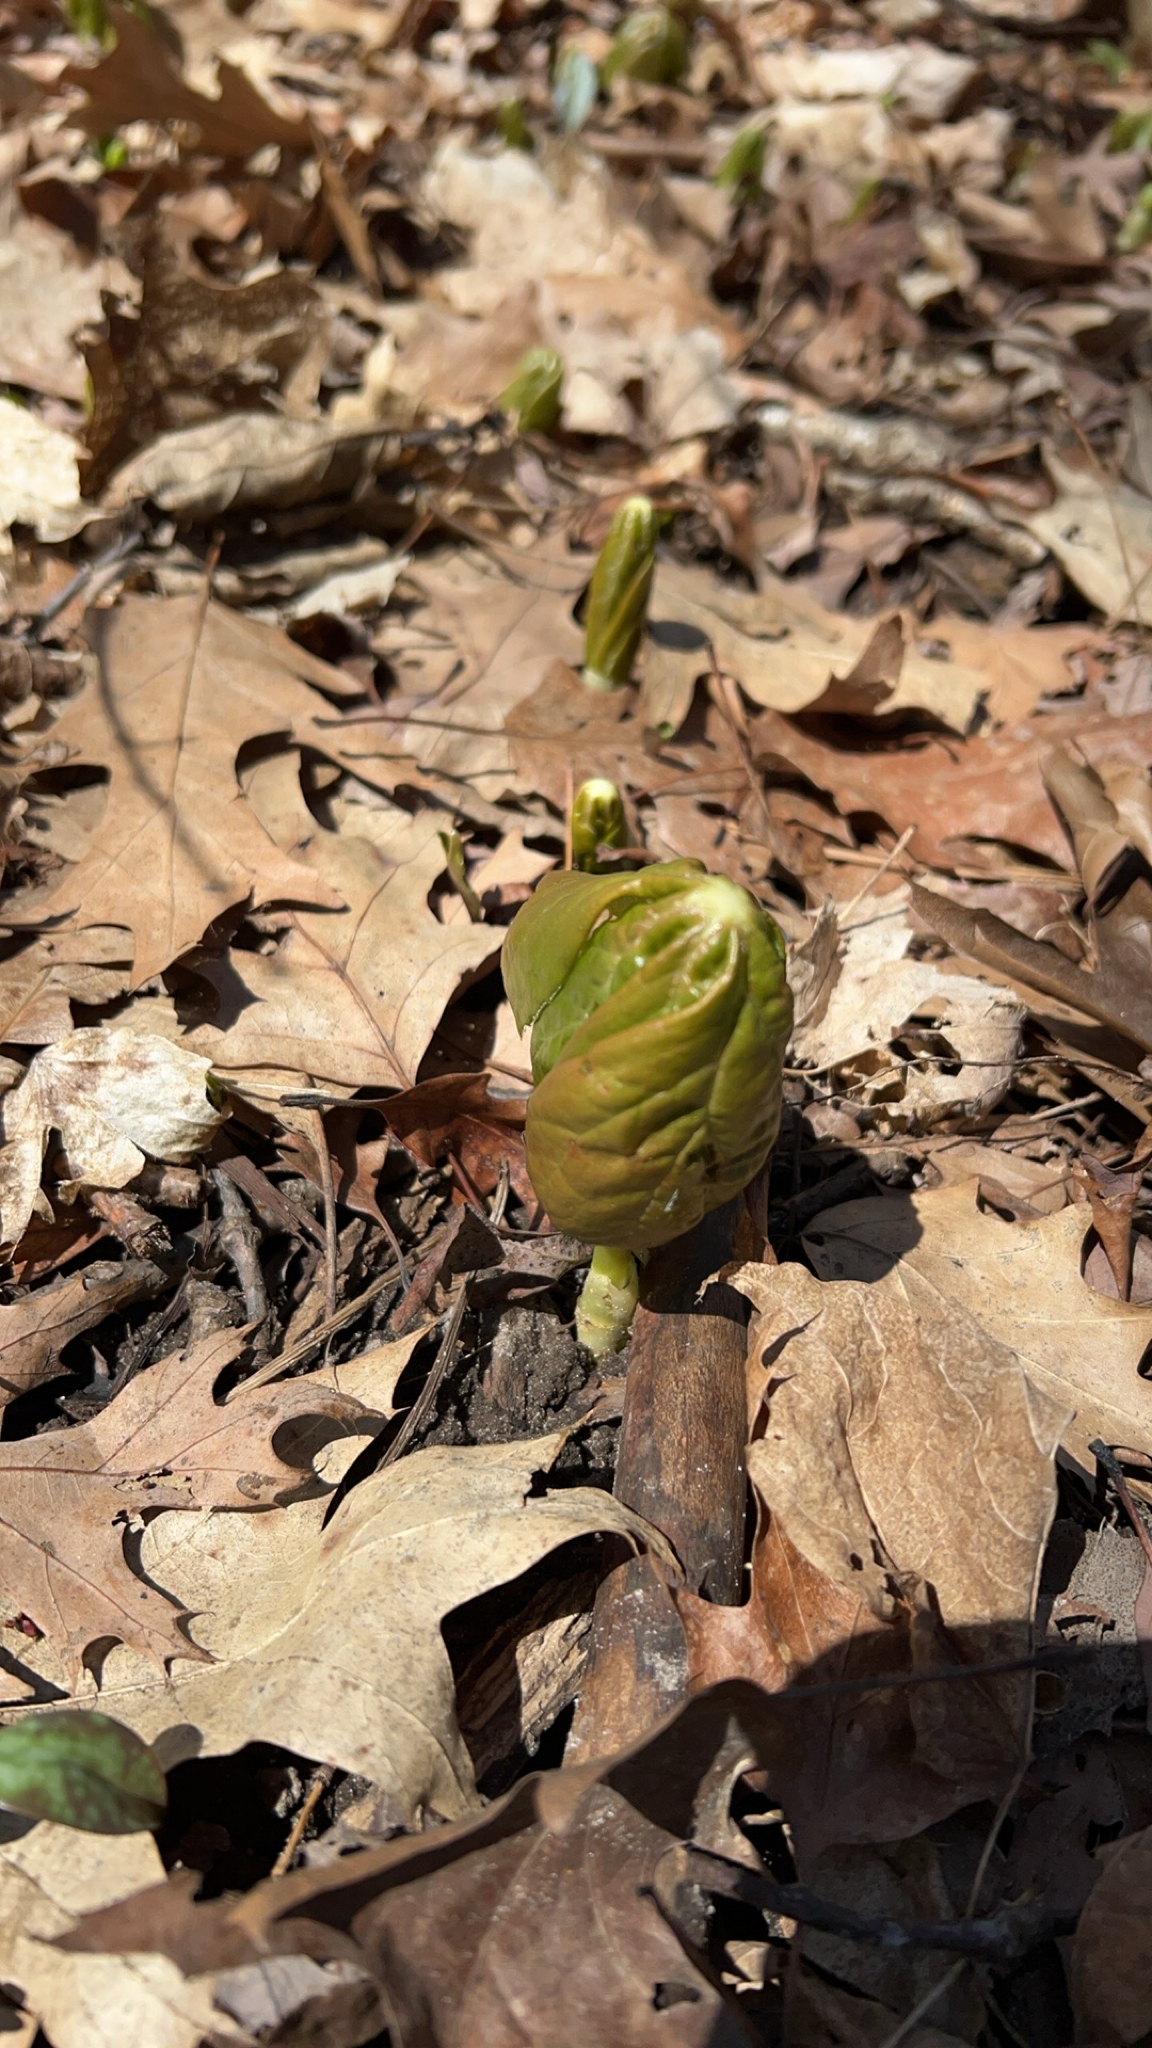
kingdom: Plantae
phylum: Tracheophyta
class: Magnoliopsida
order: Ranunculales
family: Berberidaceae
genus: Podophyllum
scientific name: Podophyllum peltatum
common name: Wild mandrake
